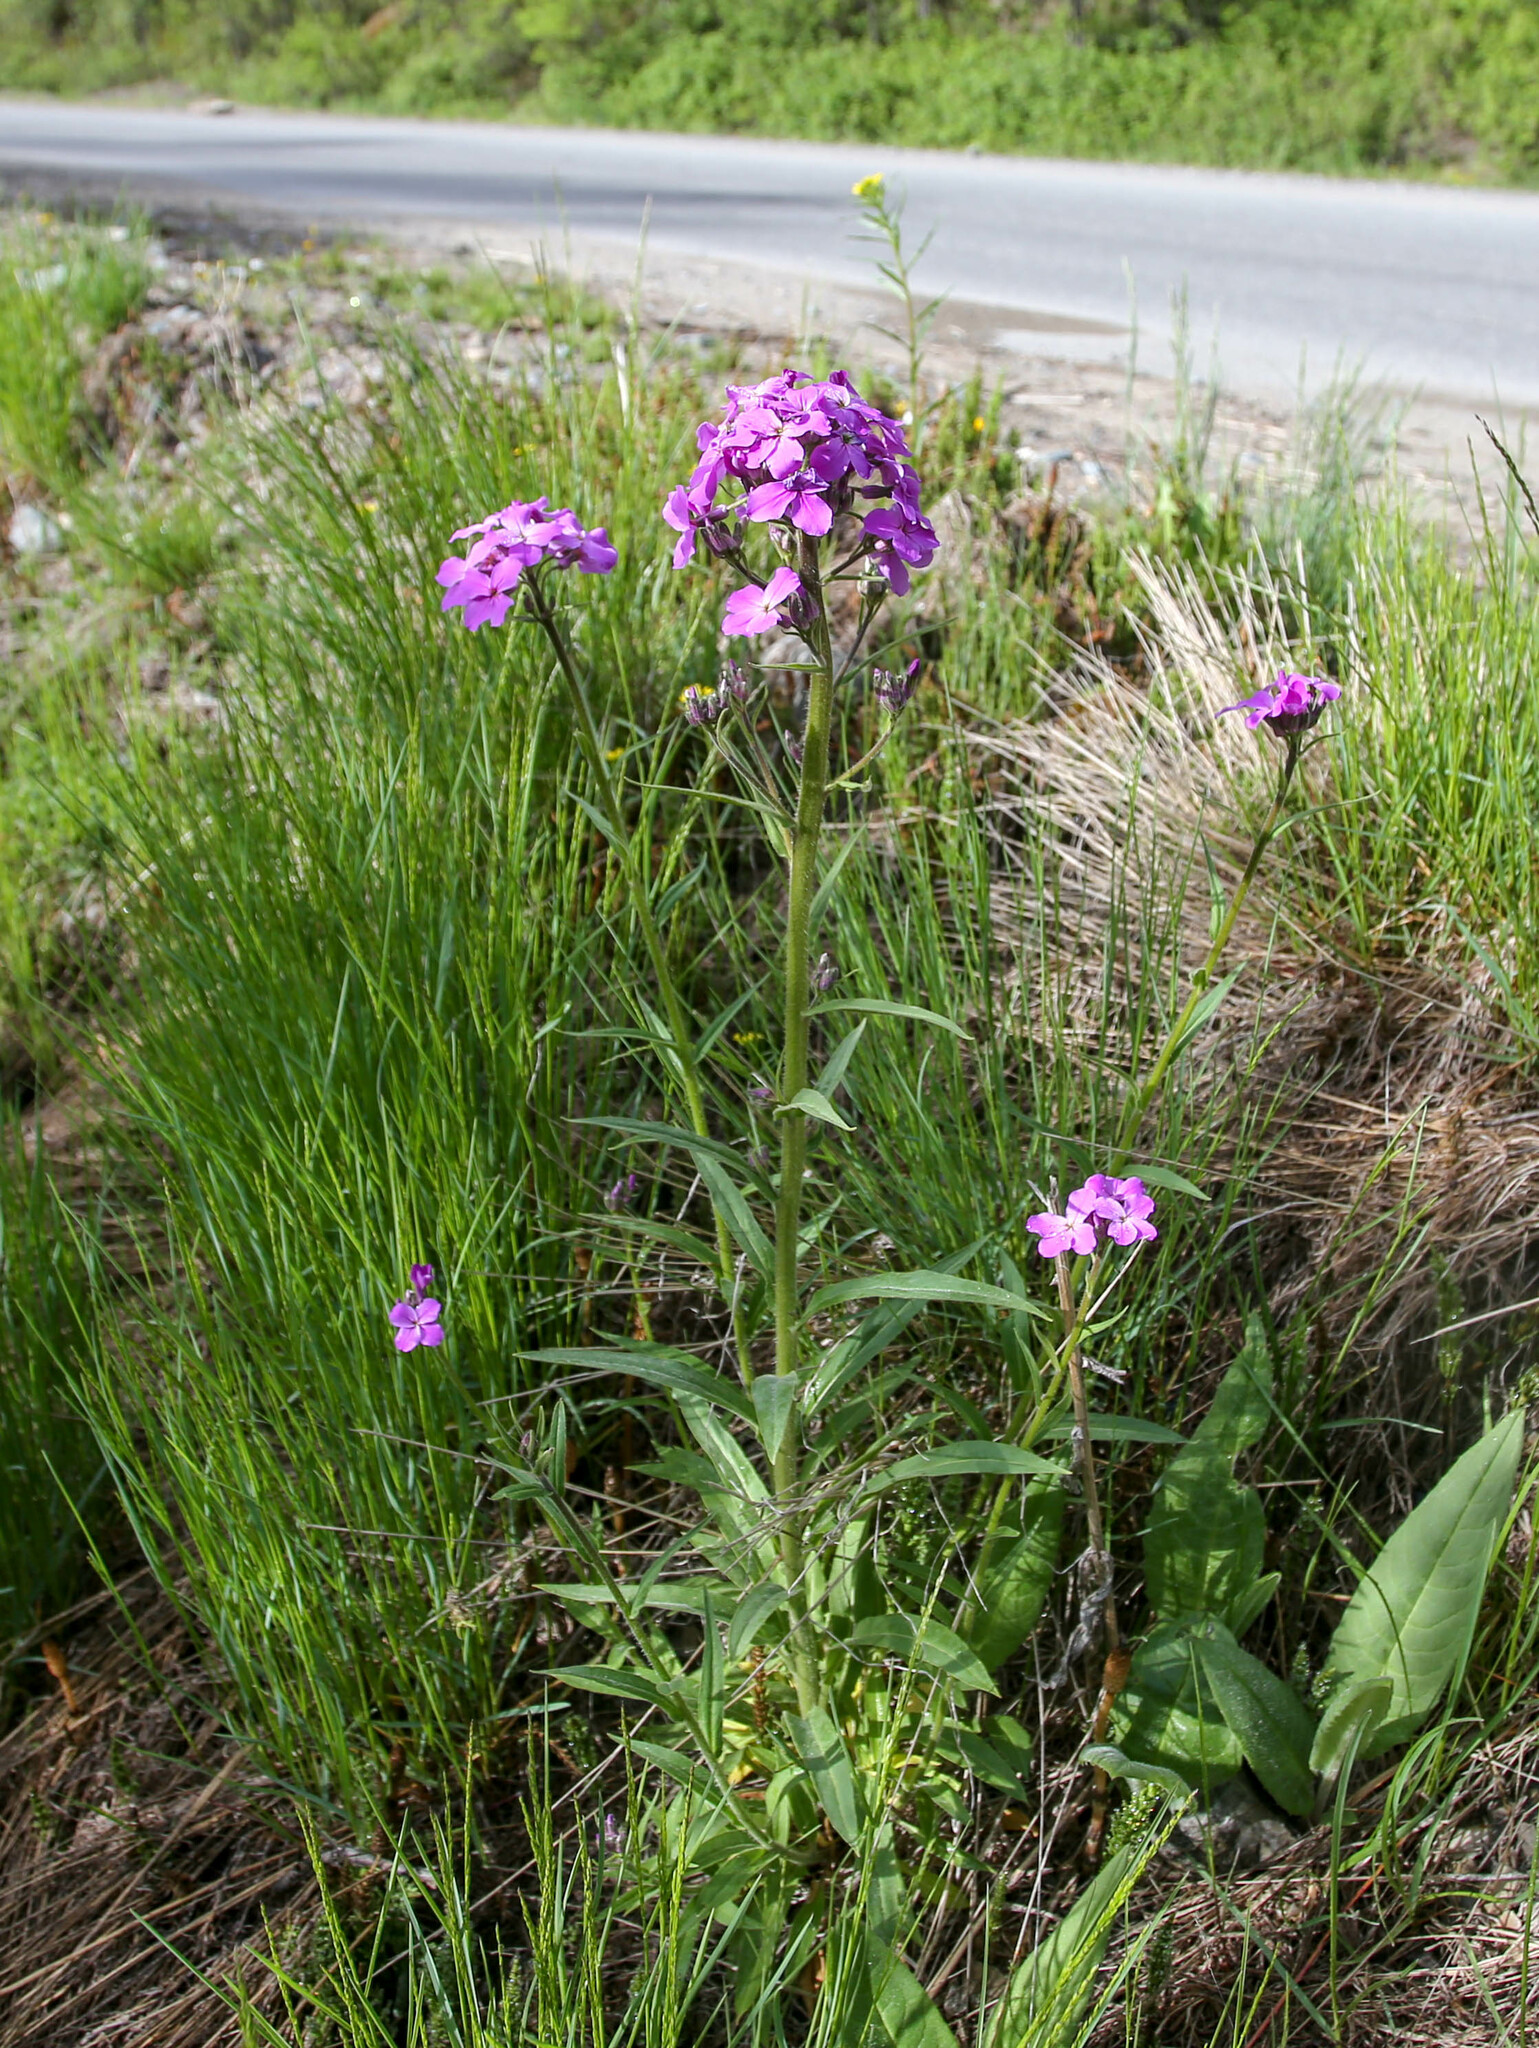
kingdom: Plantae
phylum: Tracheophyta
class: Magnoliopsida
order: Brassicales
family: Brassicaceae
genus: Hesperis
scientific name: Hesperis sibirica
